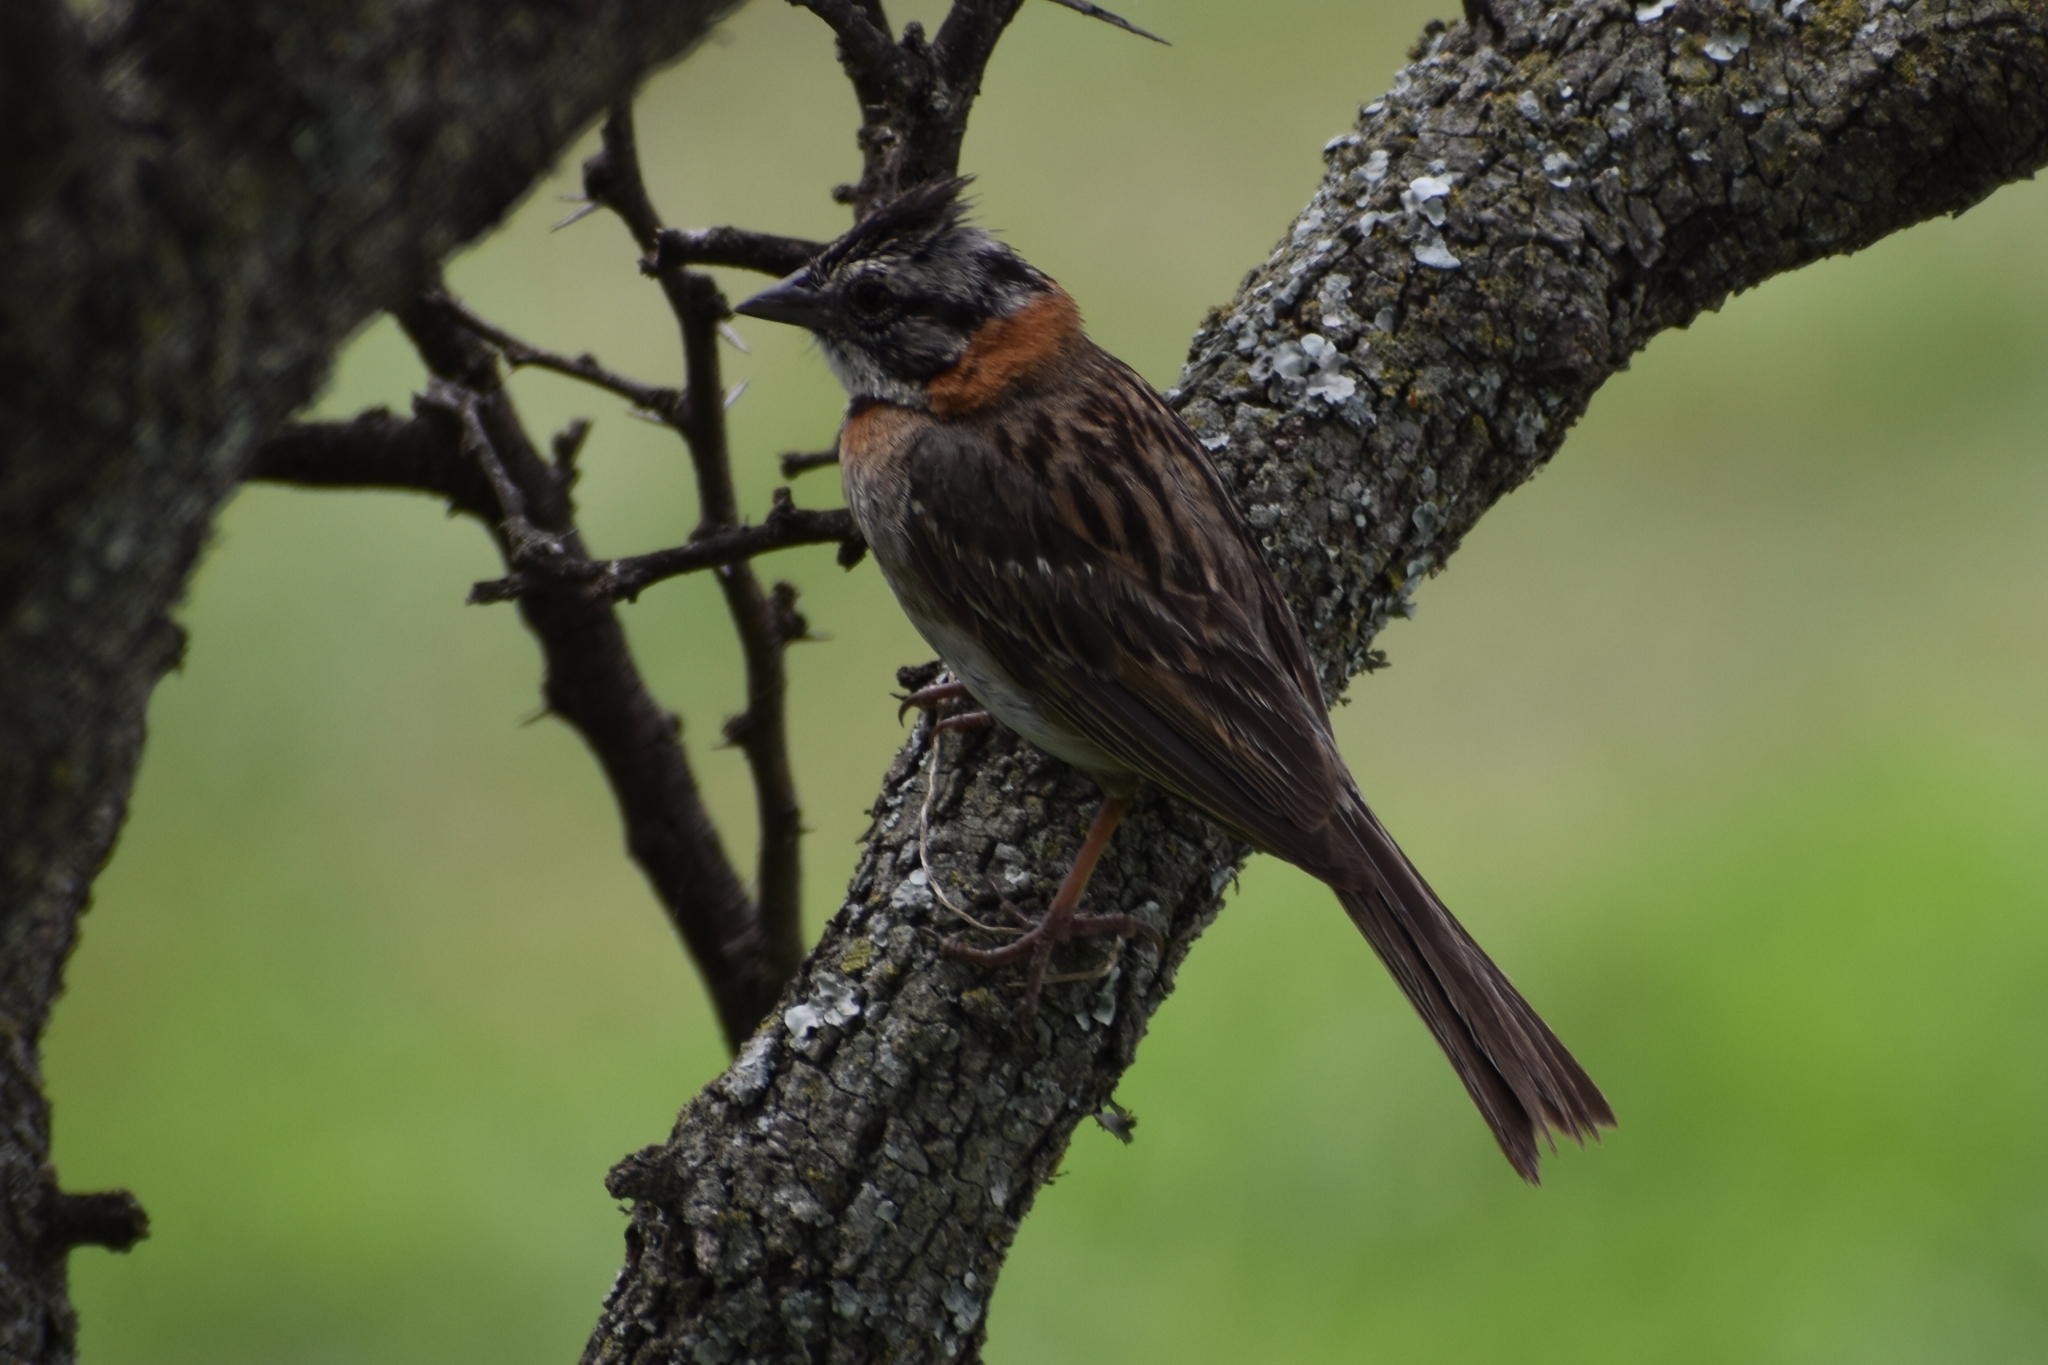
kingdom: Animalia
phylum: Chordata
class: Aves
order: Passeriformes
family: Passerellidae
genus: Zonotrichia
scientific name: Zonotrichia capensis
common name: Rufous-collared sparrow
